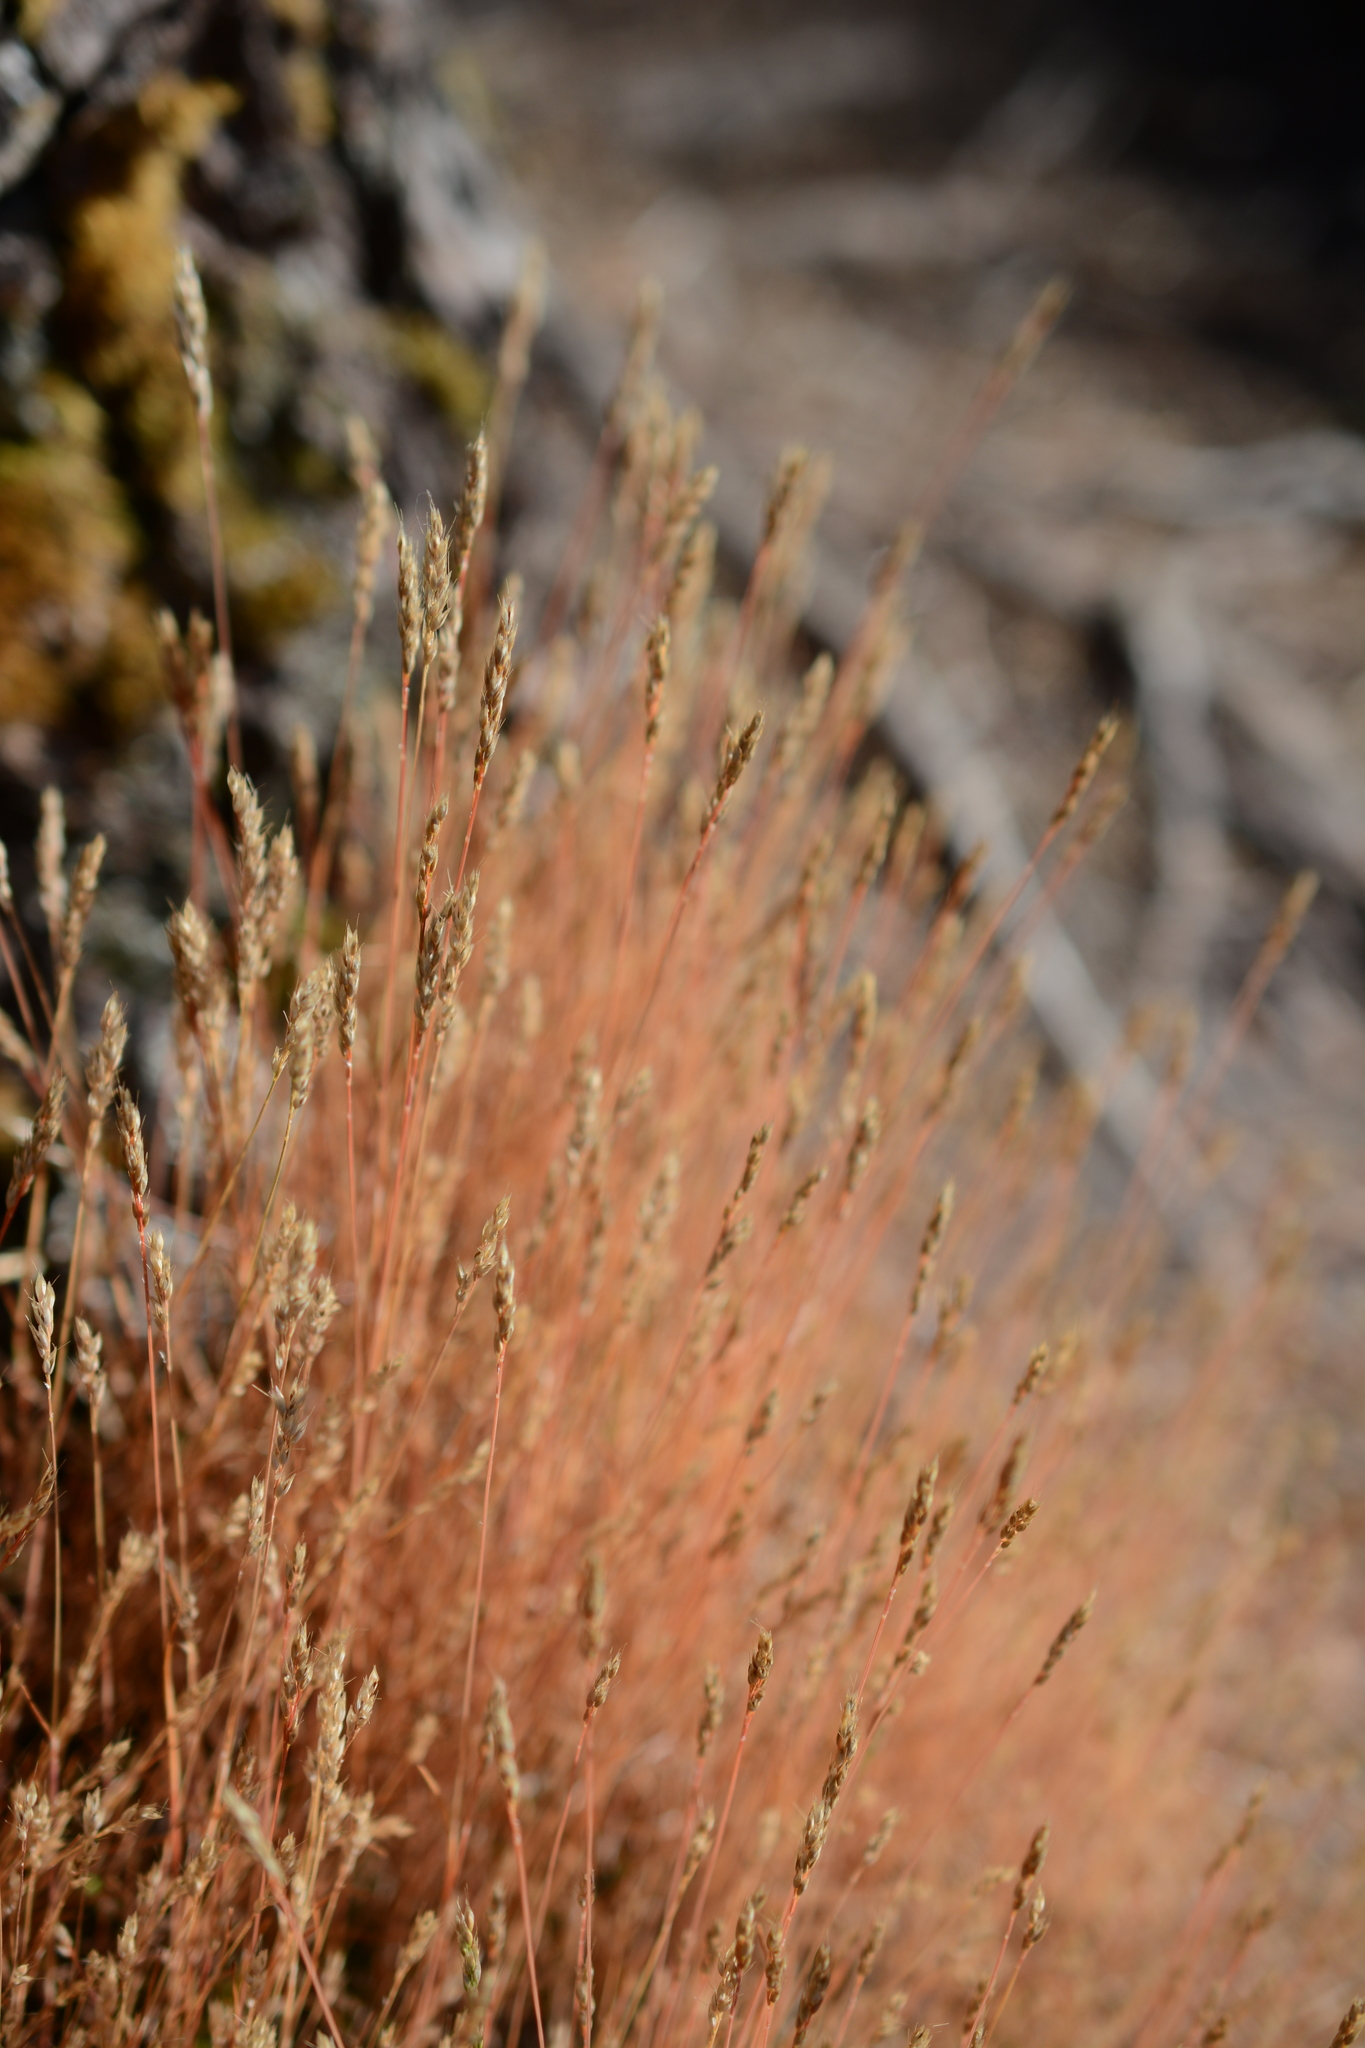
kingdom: Plantae
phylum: Tracheophyta
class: Liliopsida
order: Poales
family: Poaceae
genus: Aira
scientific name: Aira praecox
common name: Early hair-grass
